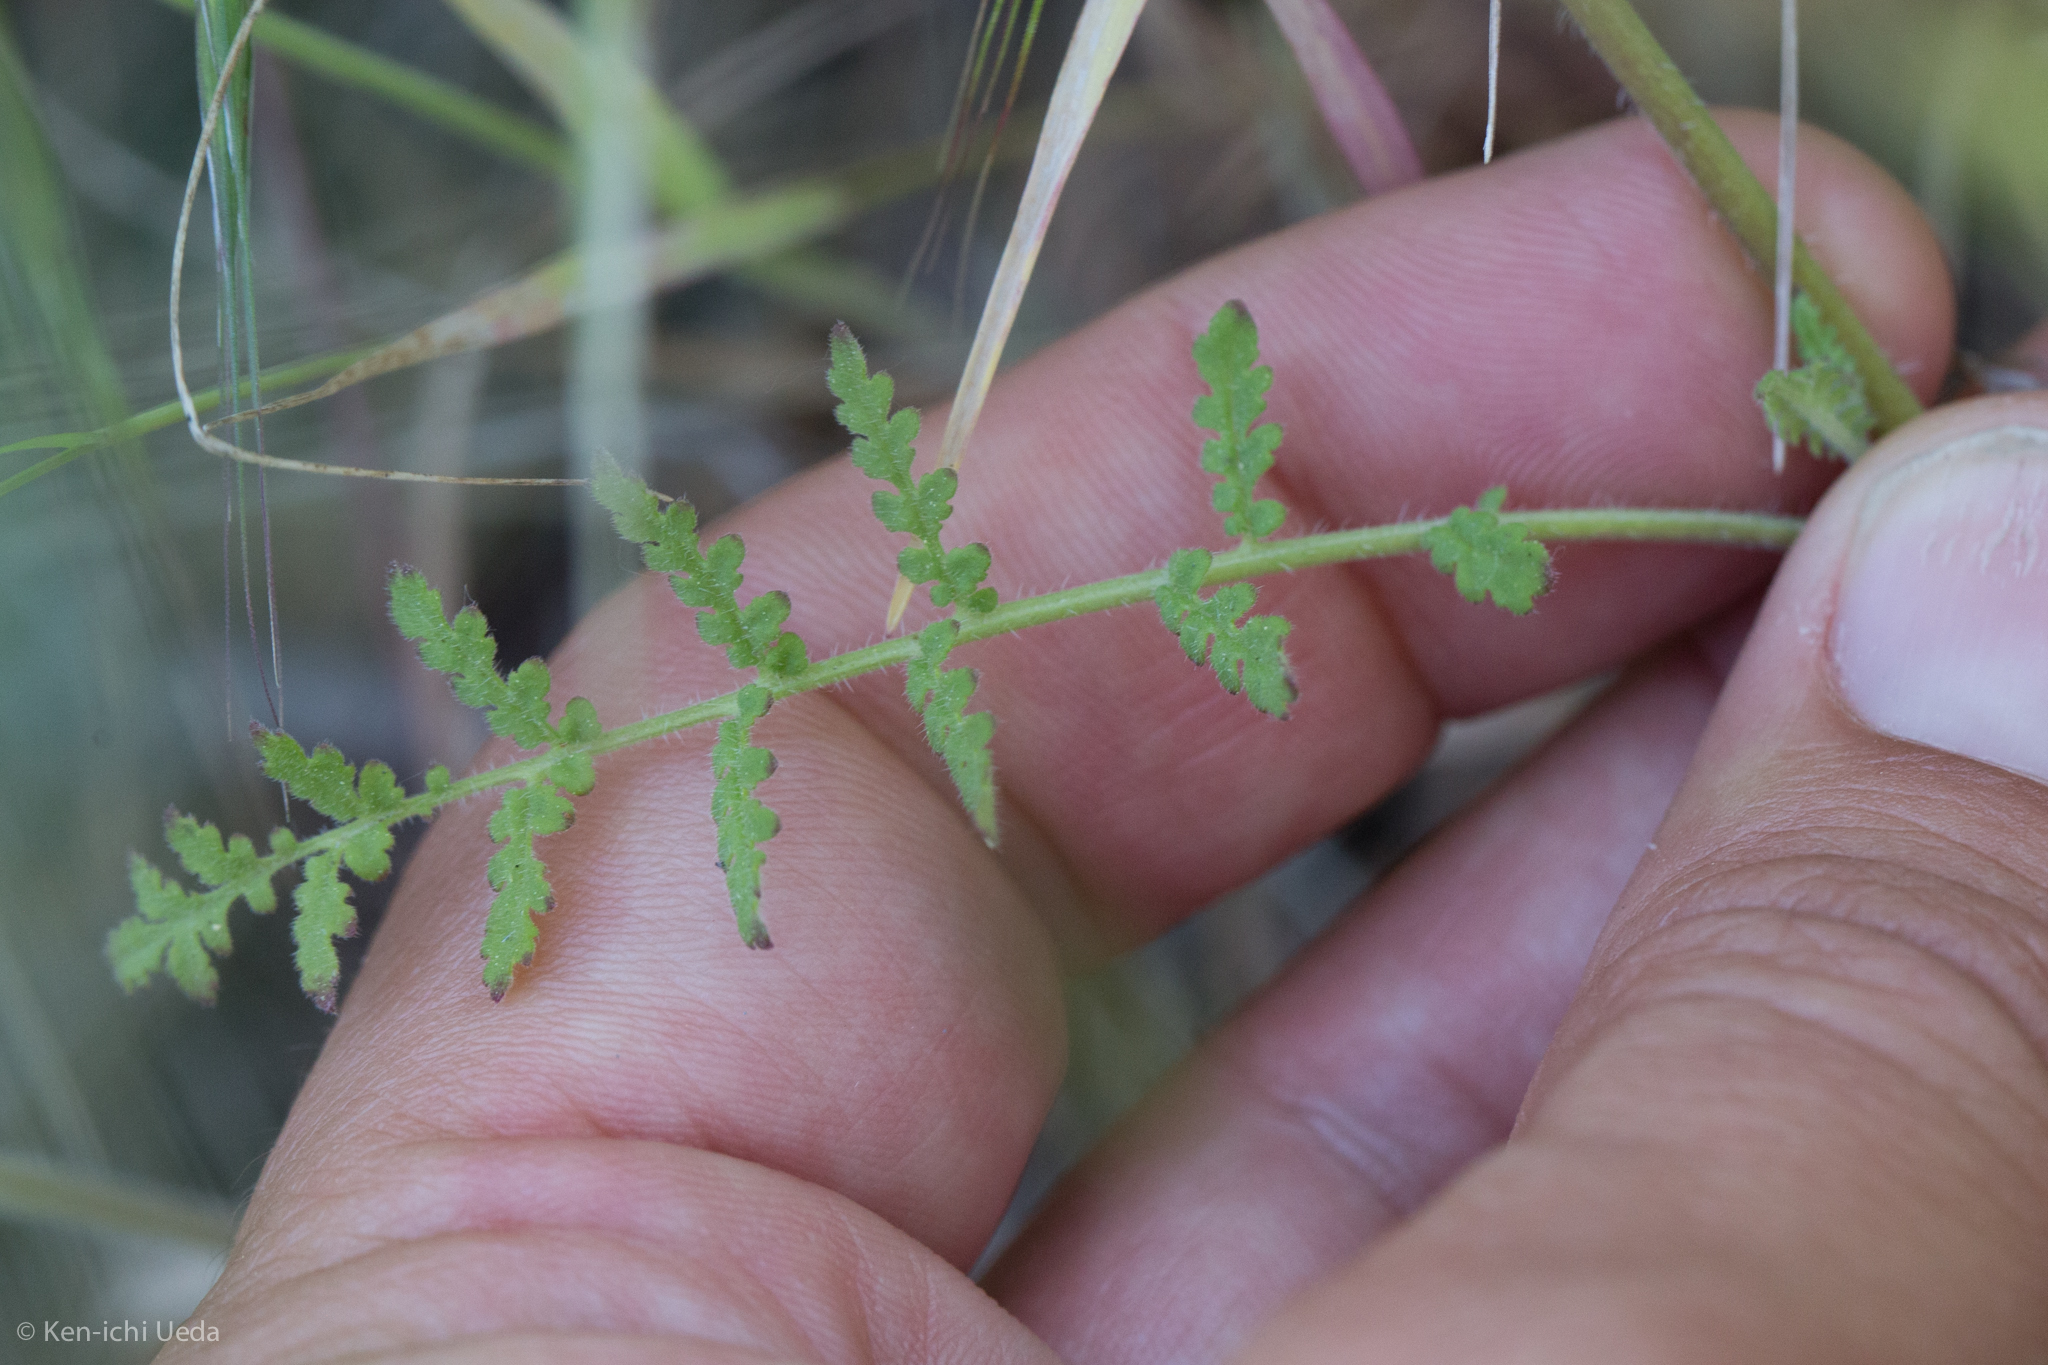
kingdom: Plantae
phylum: Tracheophyta
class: Magnoliopsida
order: Boraginales
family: Hydrophyllaceae
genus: Phacelia
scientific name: Phacelia distans
